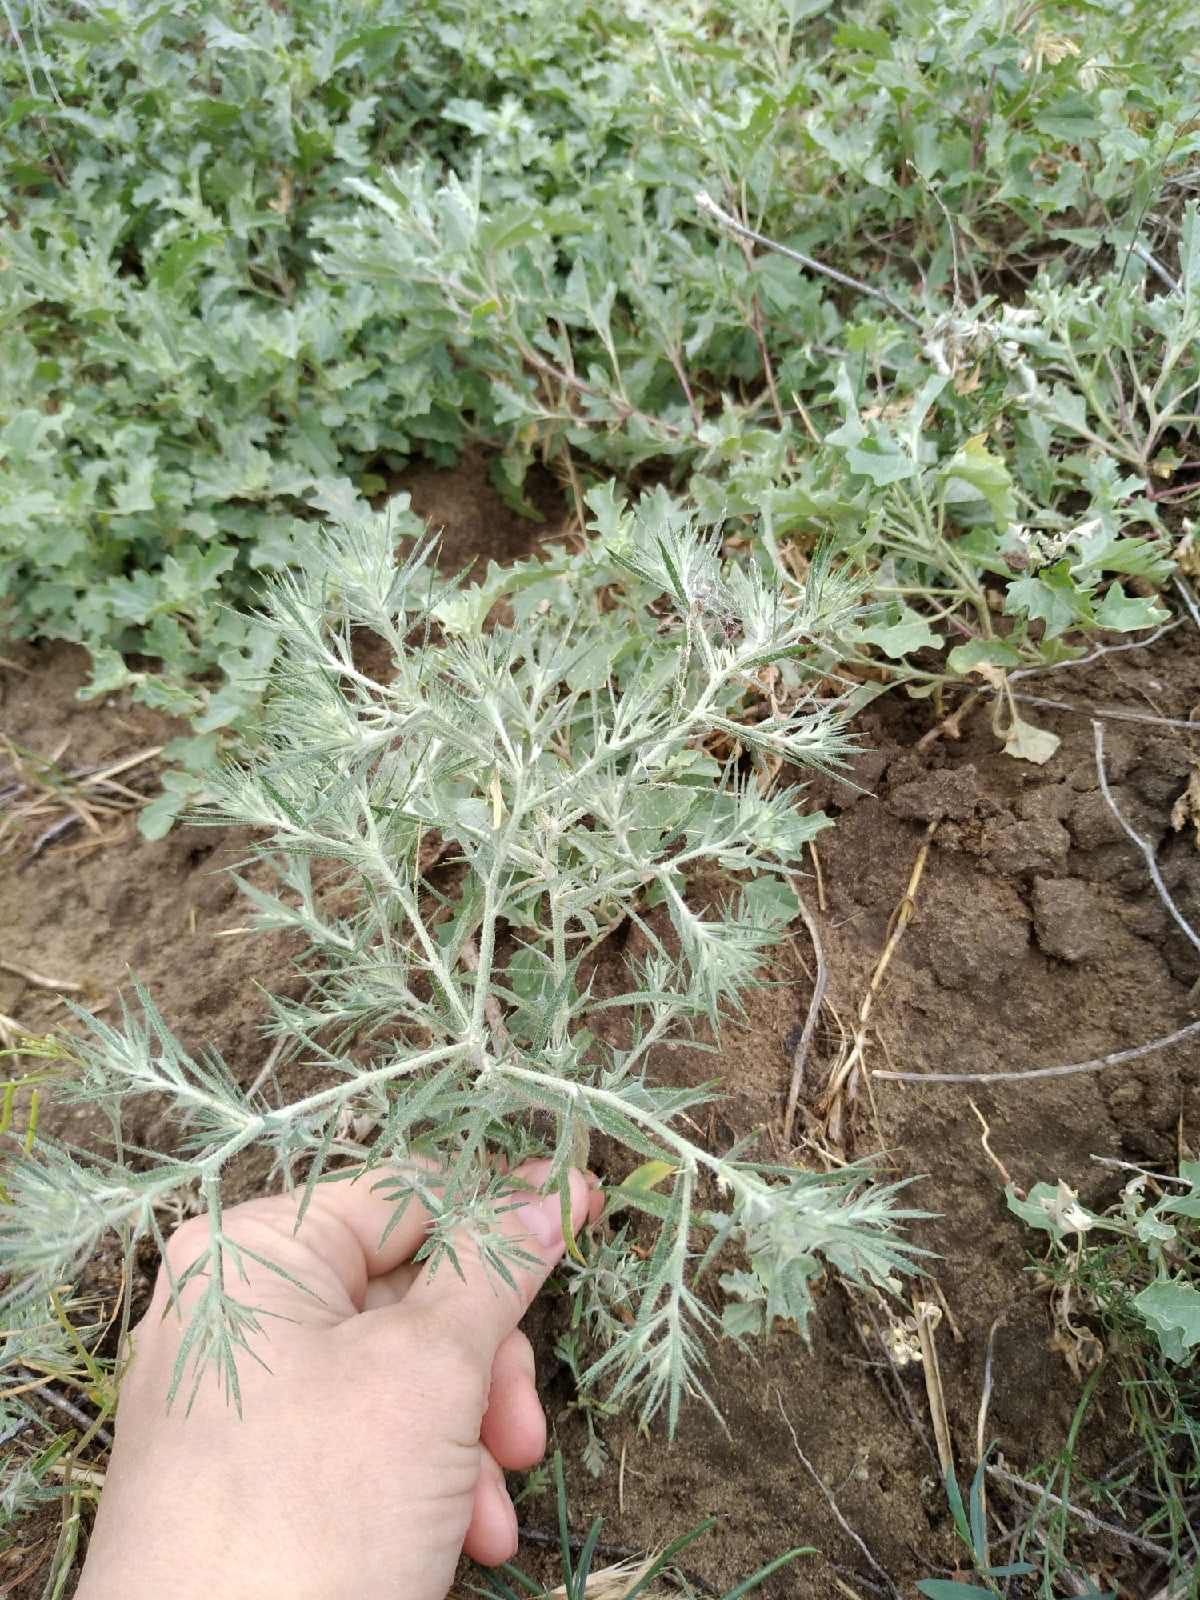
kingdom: Plantae
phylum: Tracheophyta
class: Magnoliopsida
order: Caryophyllales
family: Amaranthaceae
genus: Ceratocarpus
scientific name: Ceratocarpus arenarius
